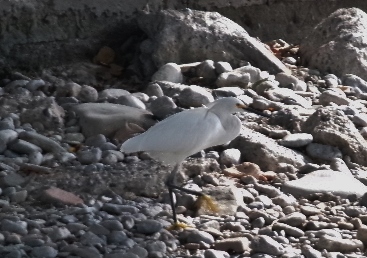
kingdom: Animalia
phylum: Chordata
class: Aves
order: Pelecaniformes
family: Ardeidae
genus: Egretta
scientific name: Egretta thula
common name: Snowy egret
